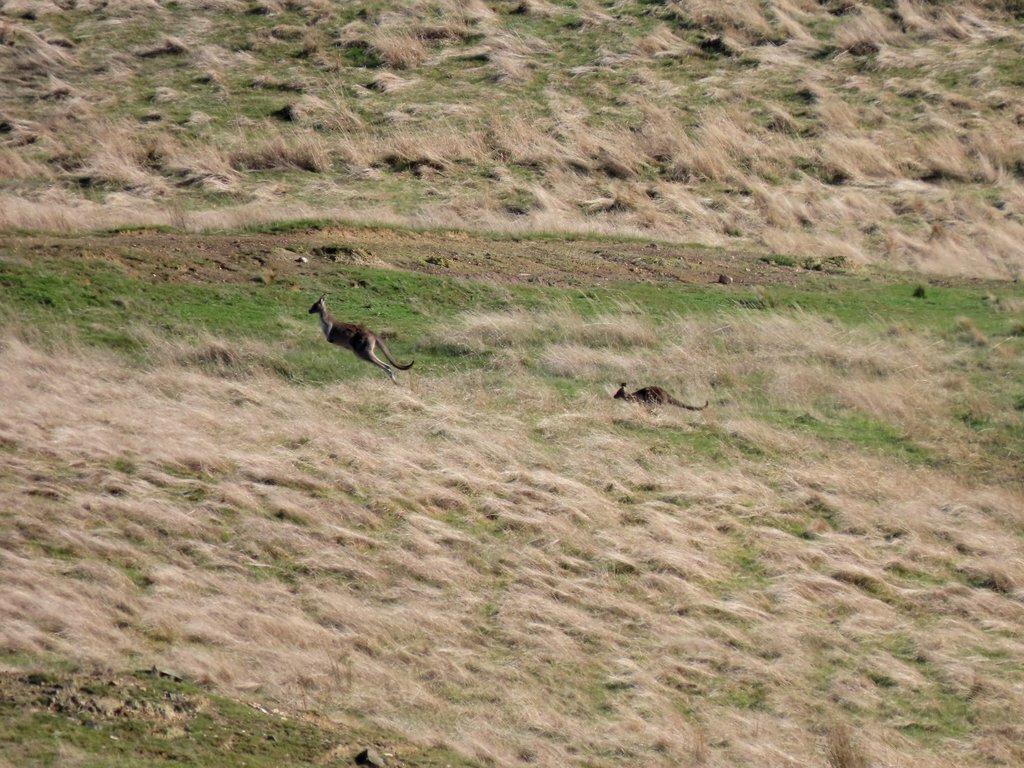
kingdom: Animalia
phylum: Chordata
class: Mammalia
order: Diprotodontia
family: Macropodidae
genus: Macropus
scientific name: Macropus giganteus
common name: Eastern grey kangaroo
